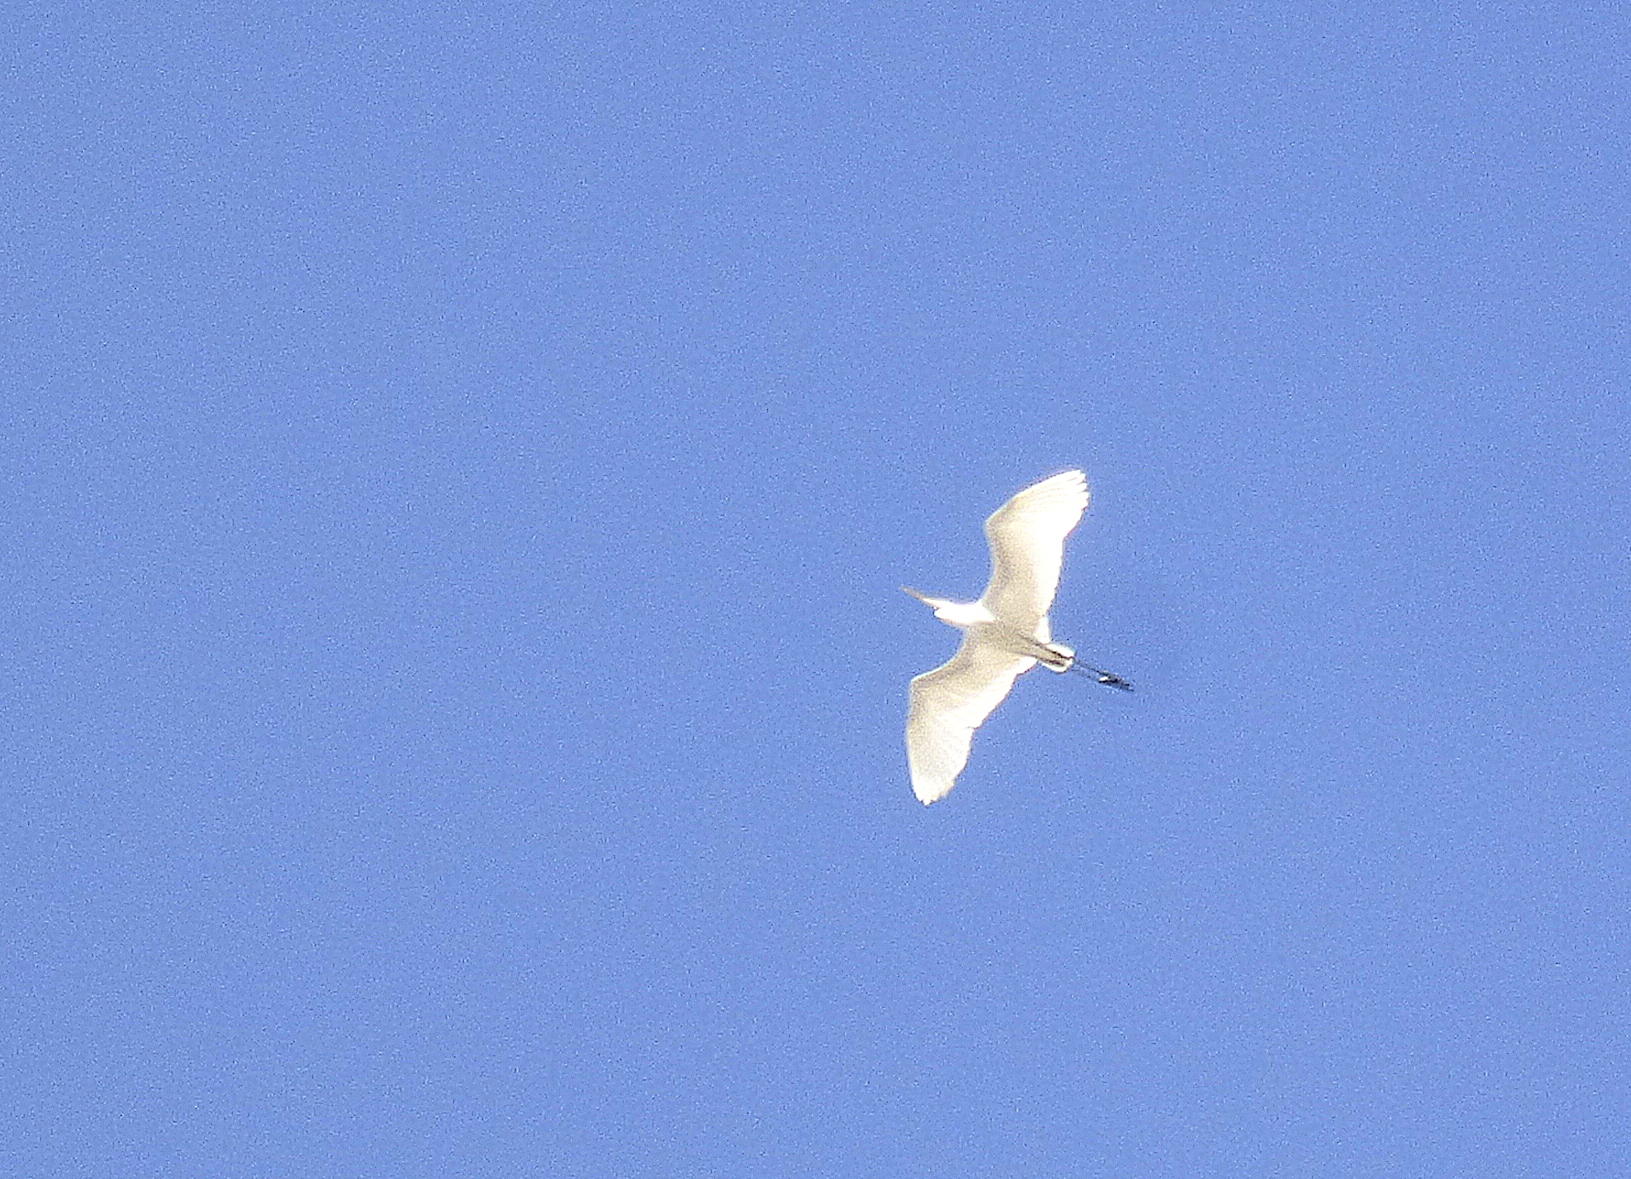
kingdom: Animalia
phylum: Chordata
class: Aves
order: Pelecaniformes
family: Ardeidae
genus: Ardea
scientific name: Ardea alba
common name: Great egret
